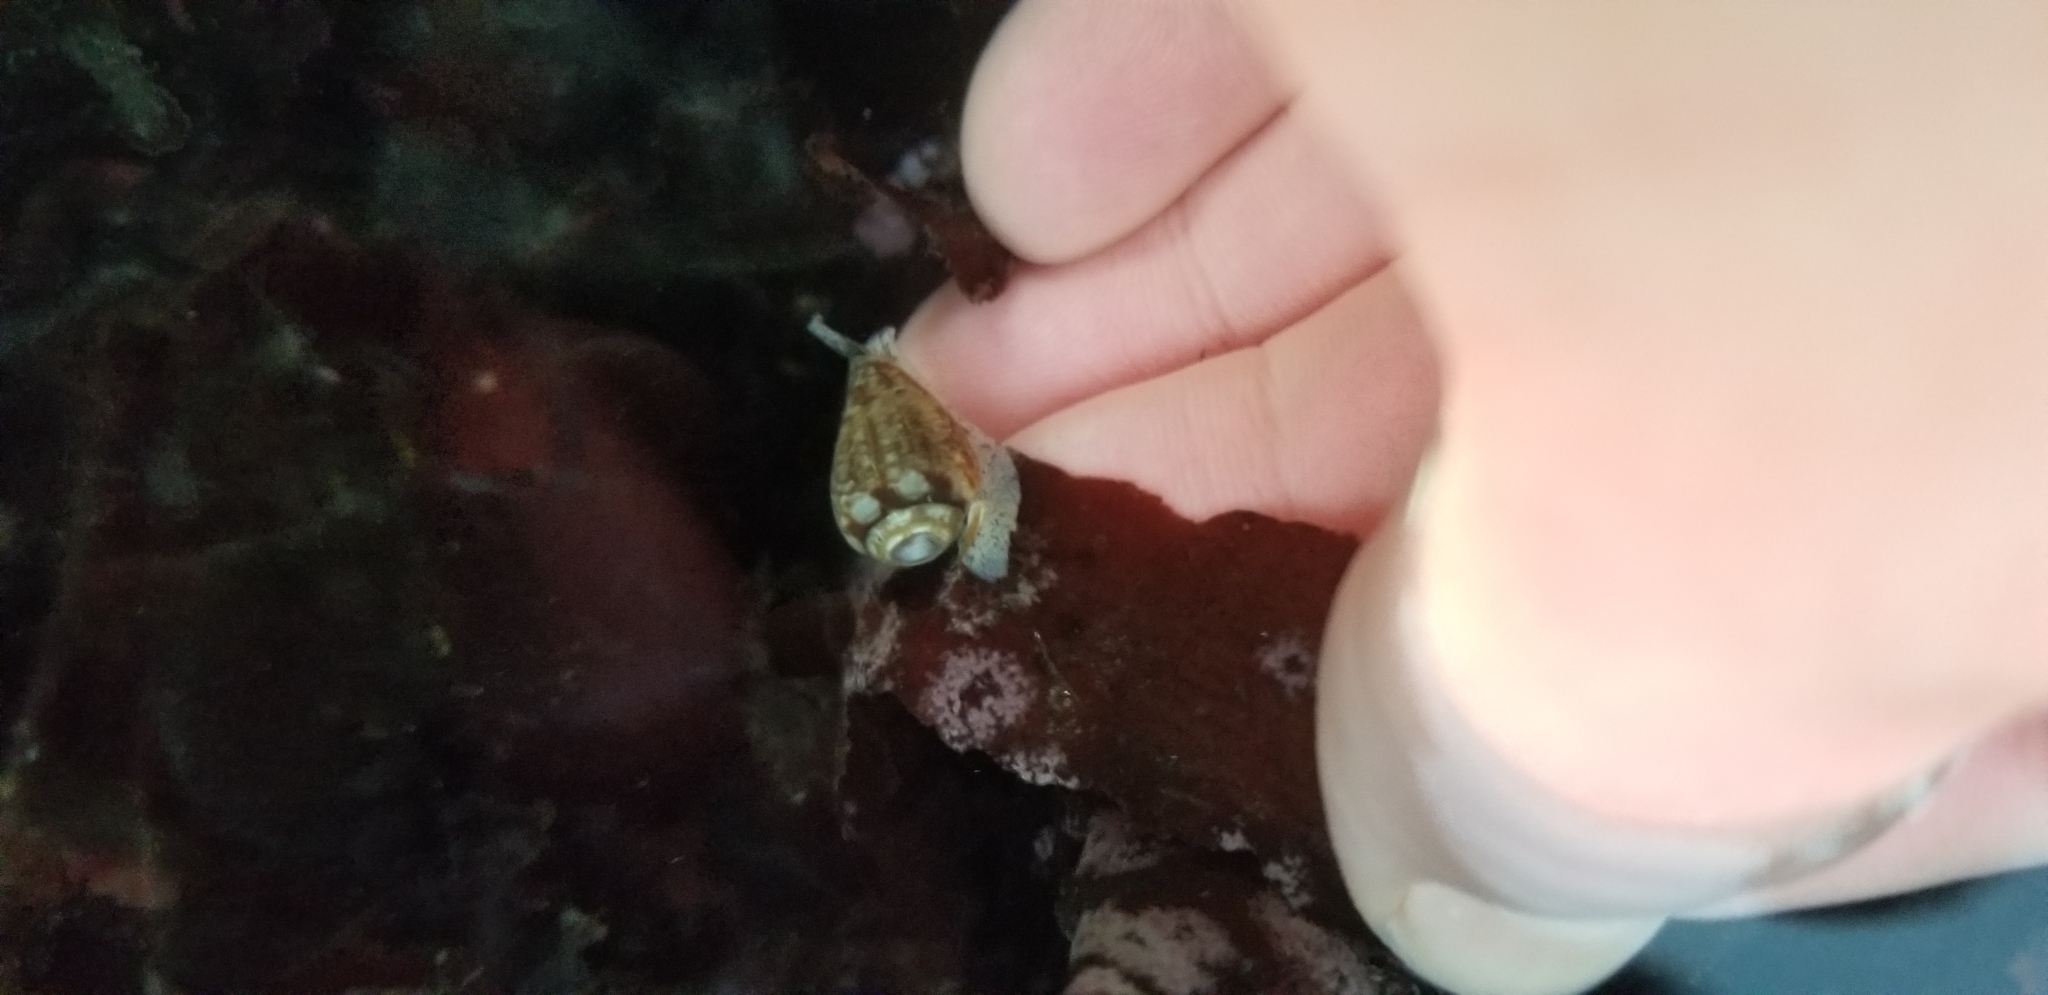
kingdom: Animalia
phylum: Mollusca
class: Gastropoda
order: Neogastropoda
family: Conidae
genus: Californiconus
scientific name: Californiconus californicus
